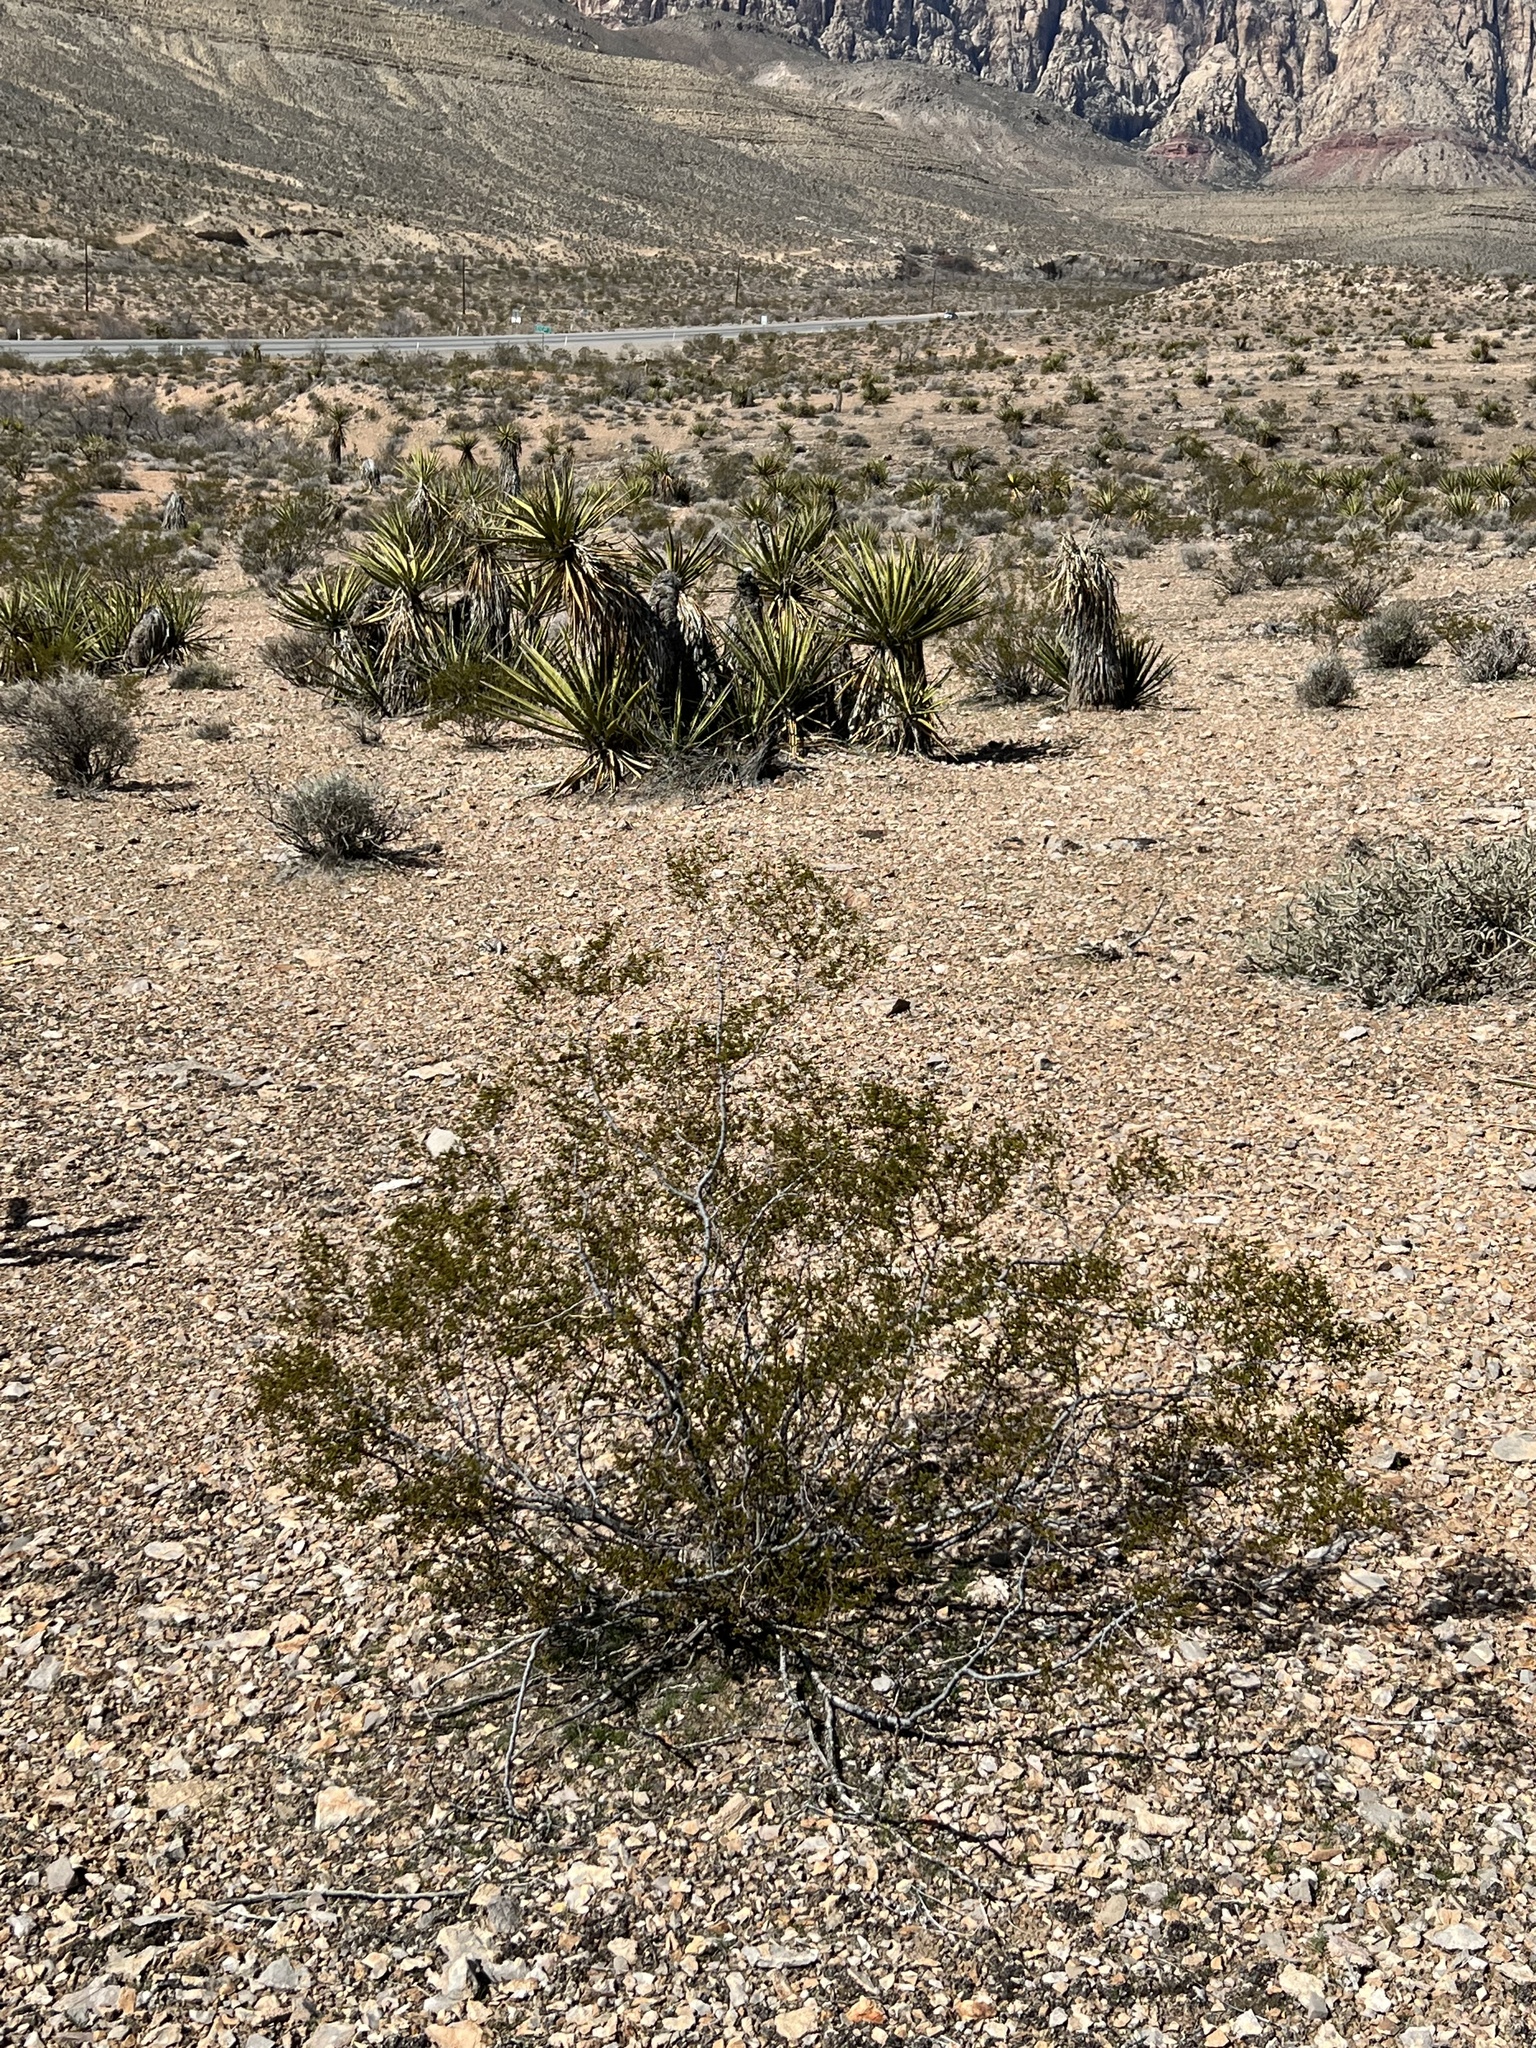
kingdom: Plantae
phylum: Tracheophyta
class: Magnoliopsida
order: Zygophyllales
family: Zygophyllaceae
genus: Larrea
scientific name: Larrea tridentata
